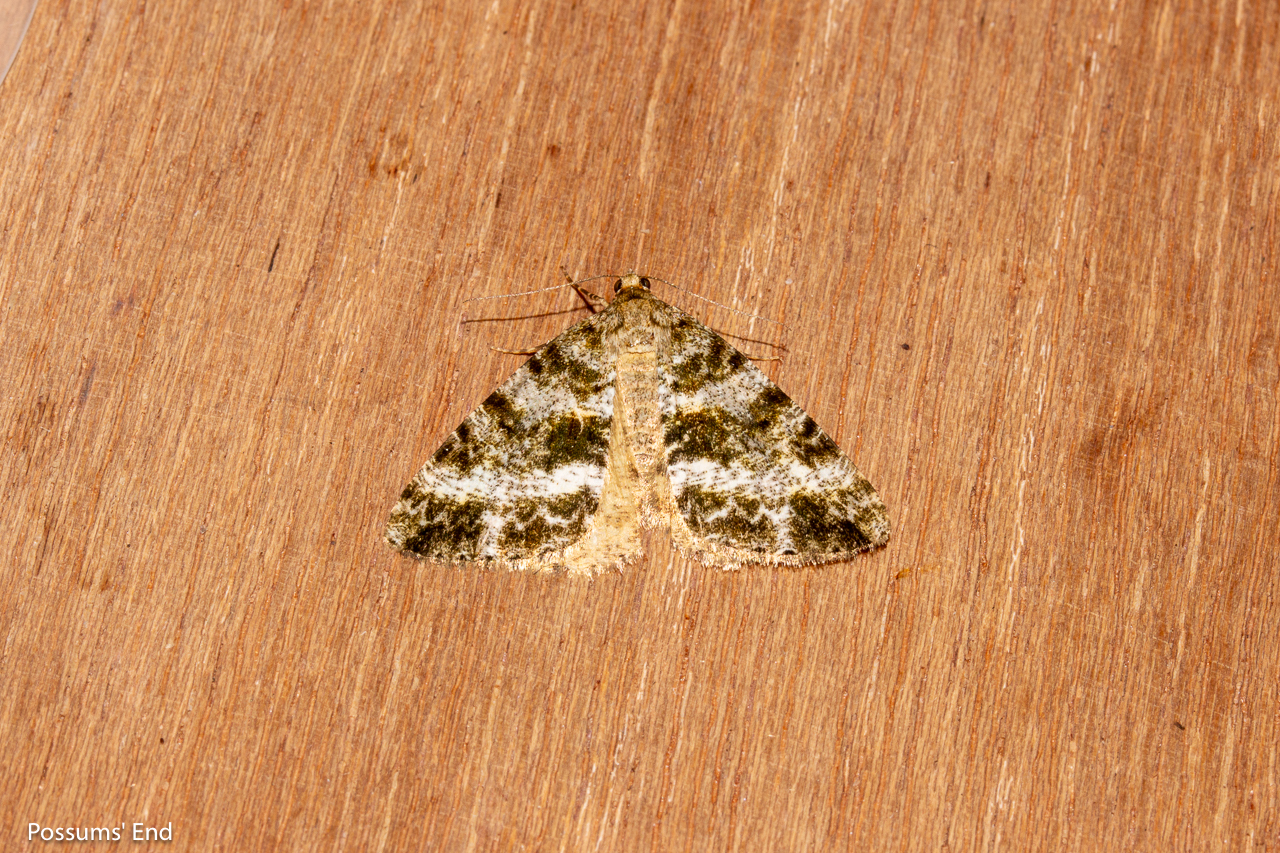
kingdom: Animalia
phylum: Arthropoda
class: Insecta
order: Lepidoptera
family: Geometridae
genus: Pseudocoremia
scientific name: Pseudocoremia lactiflua
